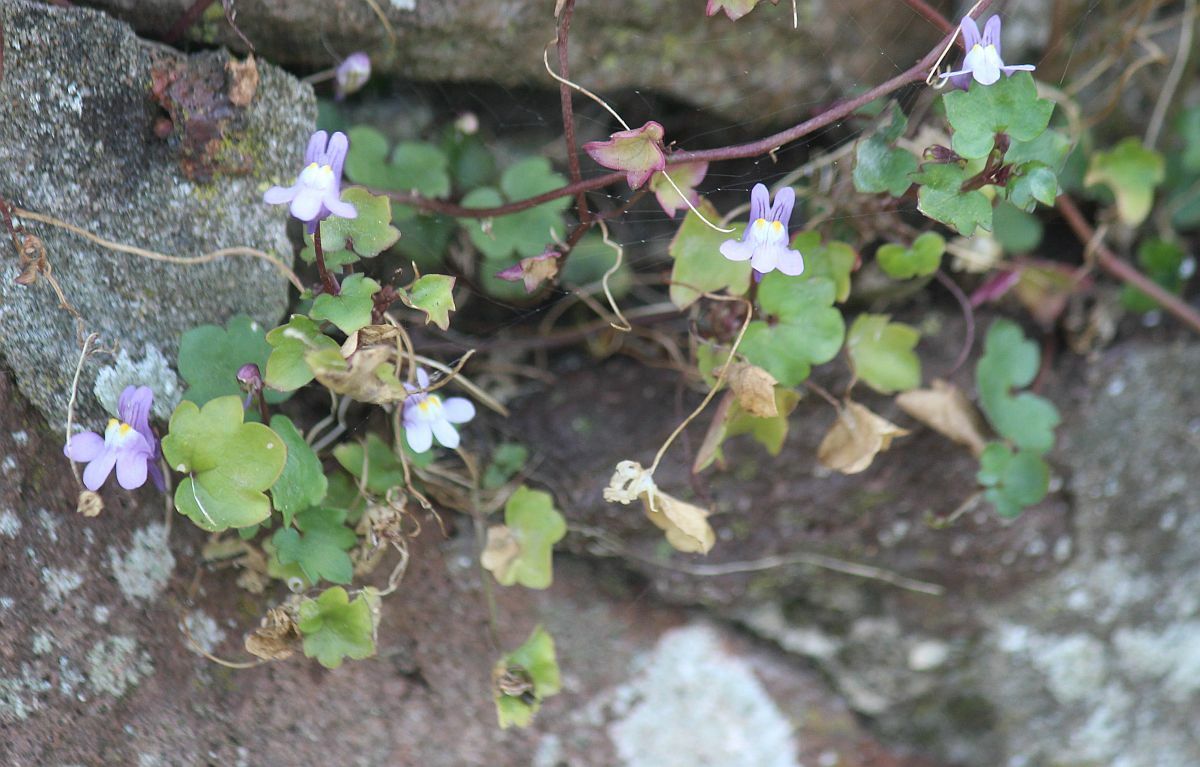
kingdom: Plantae
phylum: Tracheophyta
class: Magnoliopsida
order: Lamiales
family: Plantaginaceae
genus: Cymbalaria
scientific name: Cymbalaria muralis
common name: Ivy-leaved toadflax
